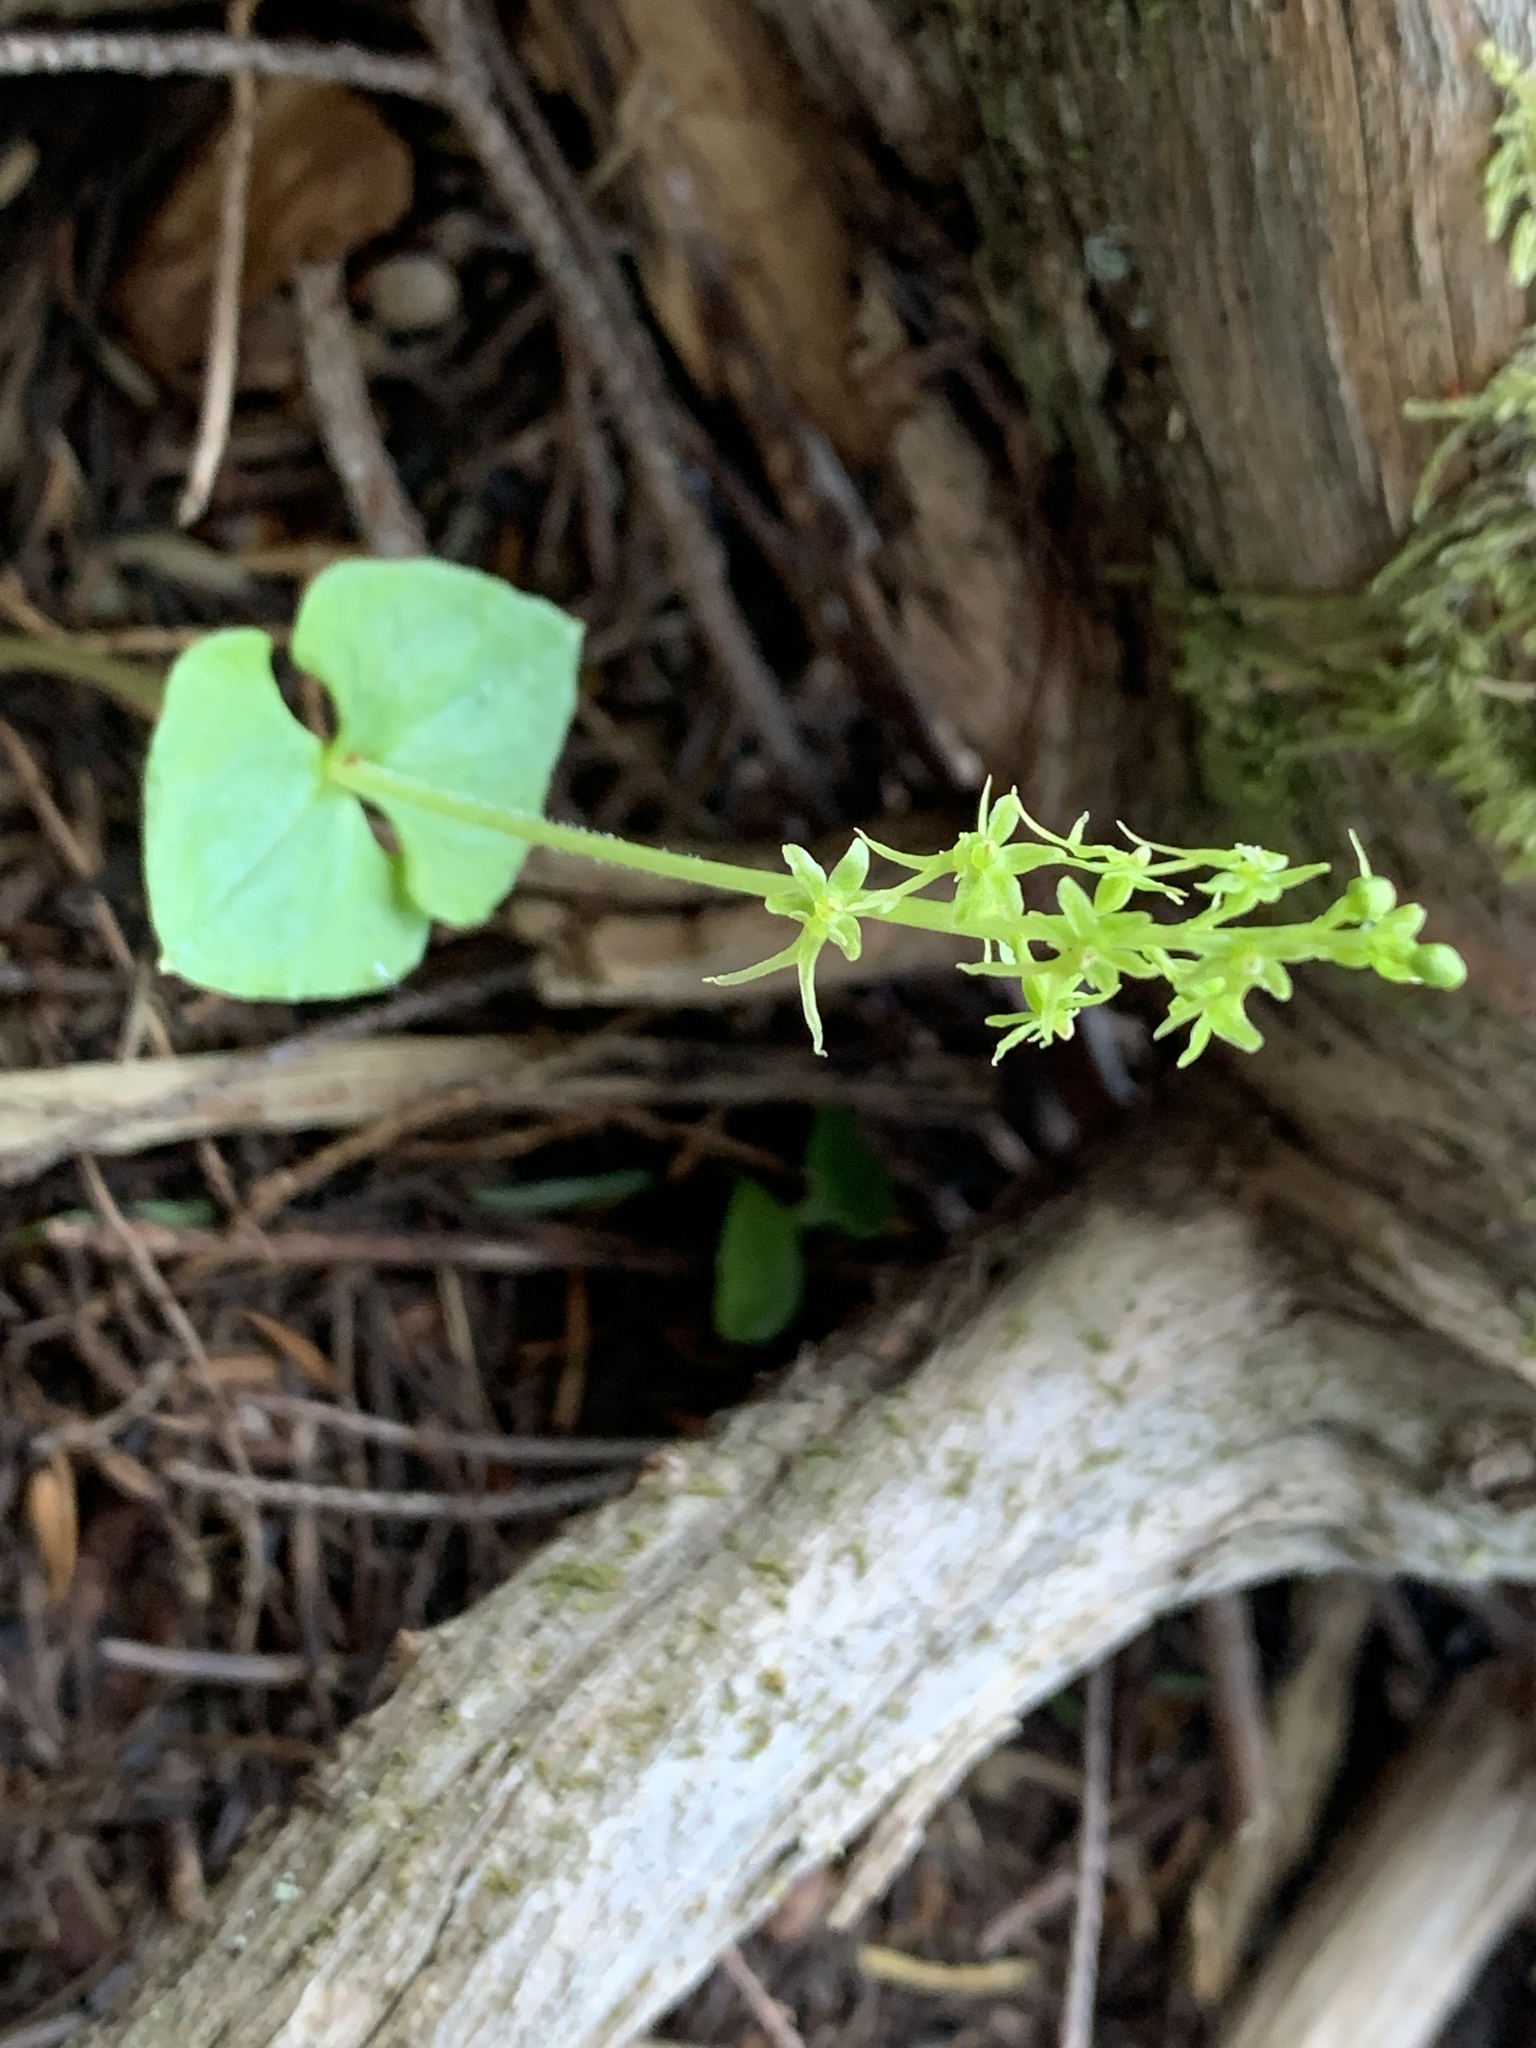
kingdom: Plantae
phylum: Tracheophyta
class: Liliopsida
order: Asparagales
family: Orchidaceae
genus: Neottia
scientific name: Neottia cordata
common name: Lesser twayblade
